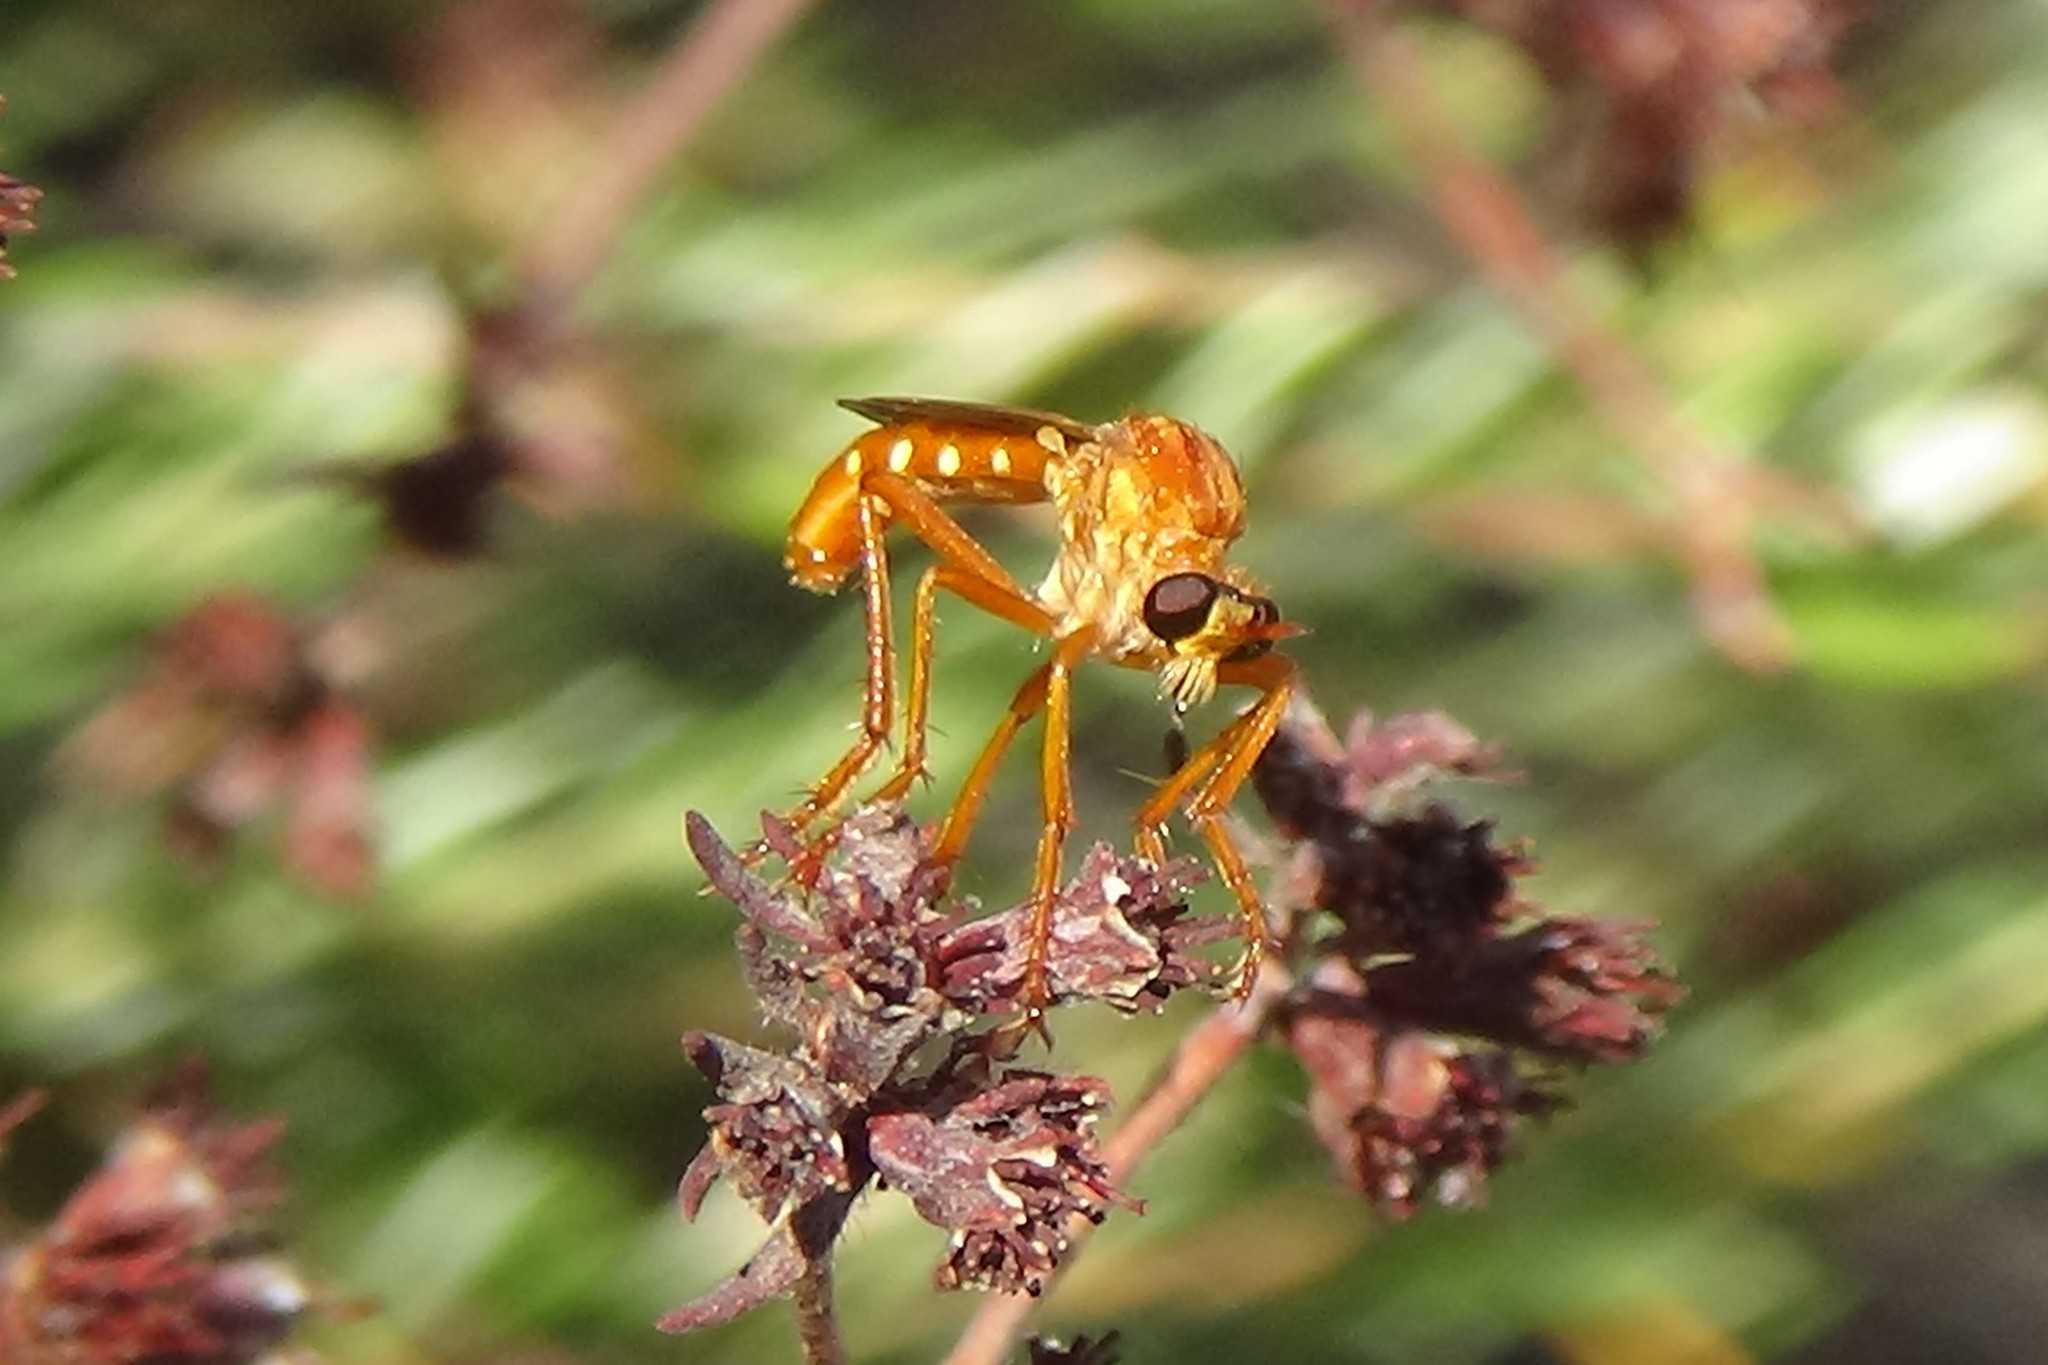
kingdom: Animalia
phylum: Arthropoda
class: Insecta
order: Diptera
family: Asilidae
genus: Saropogon
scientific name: Saropogon luteus
